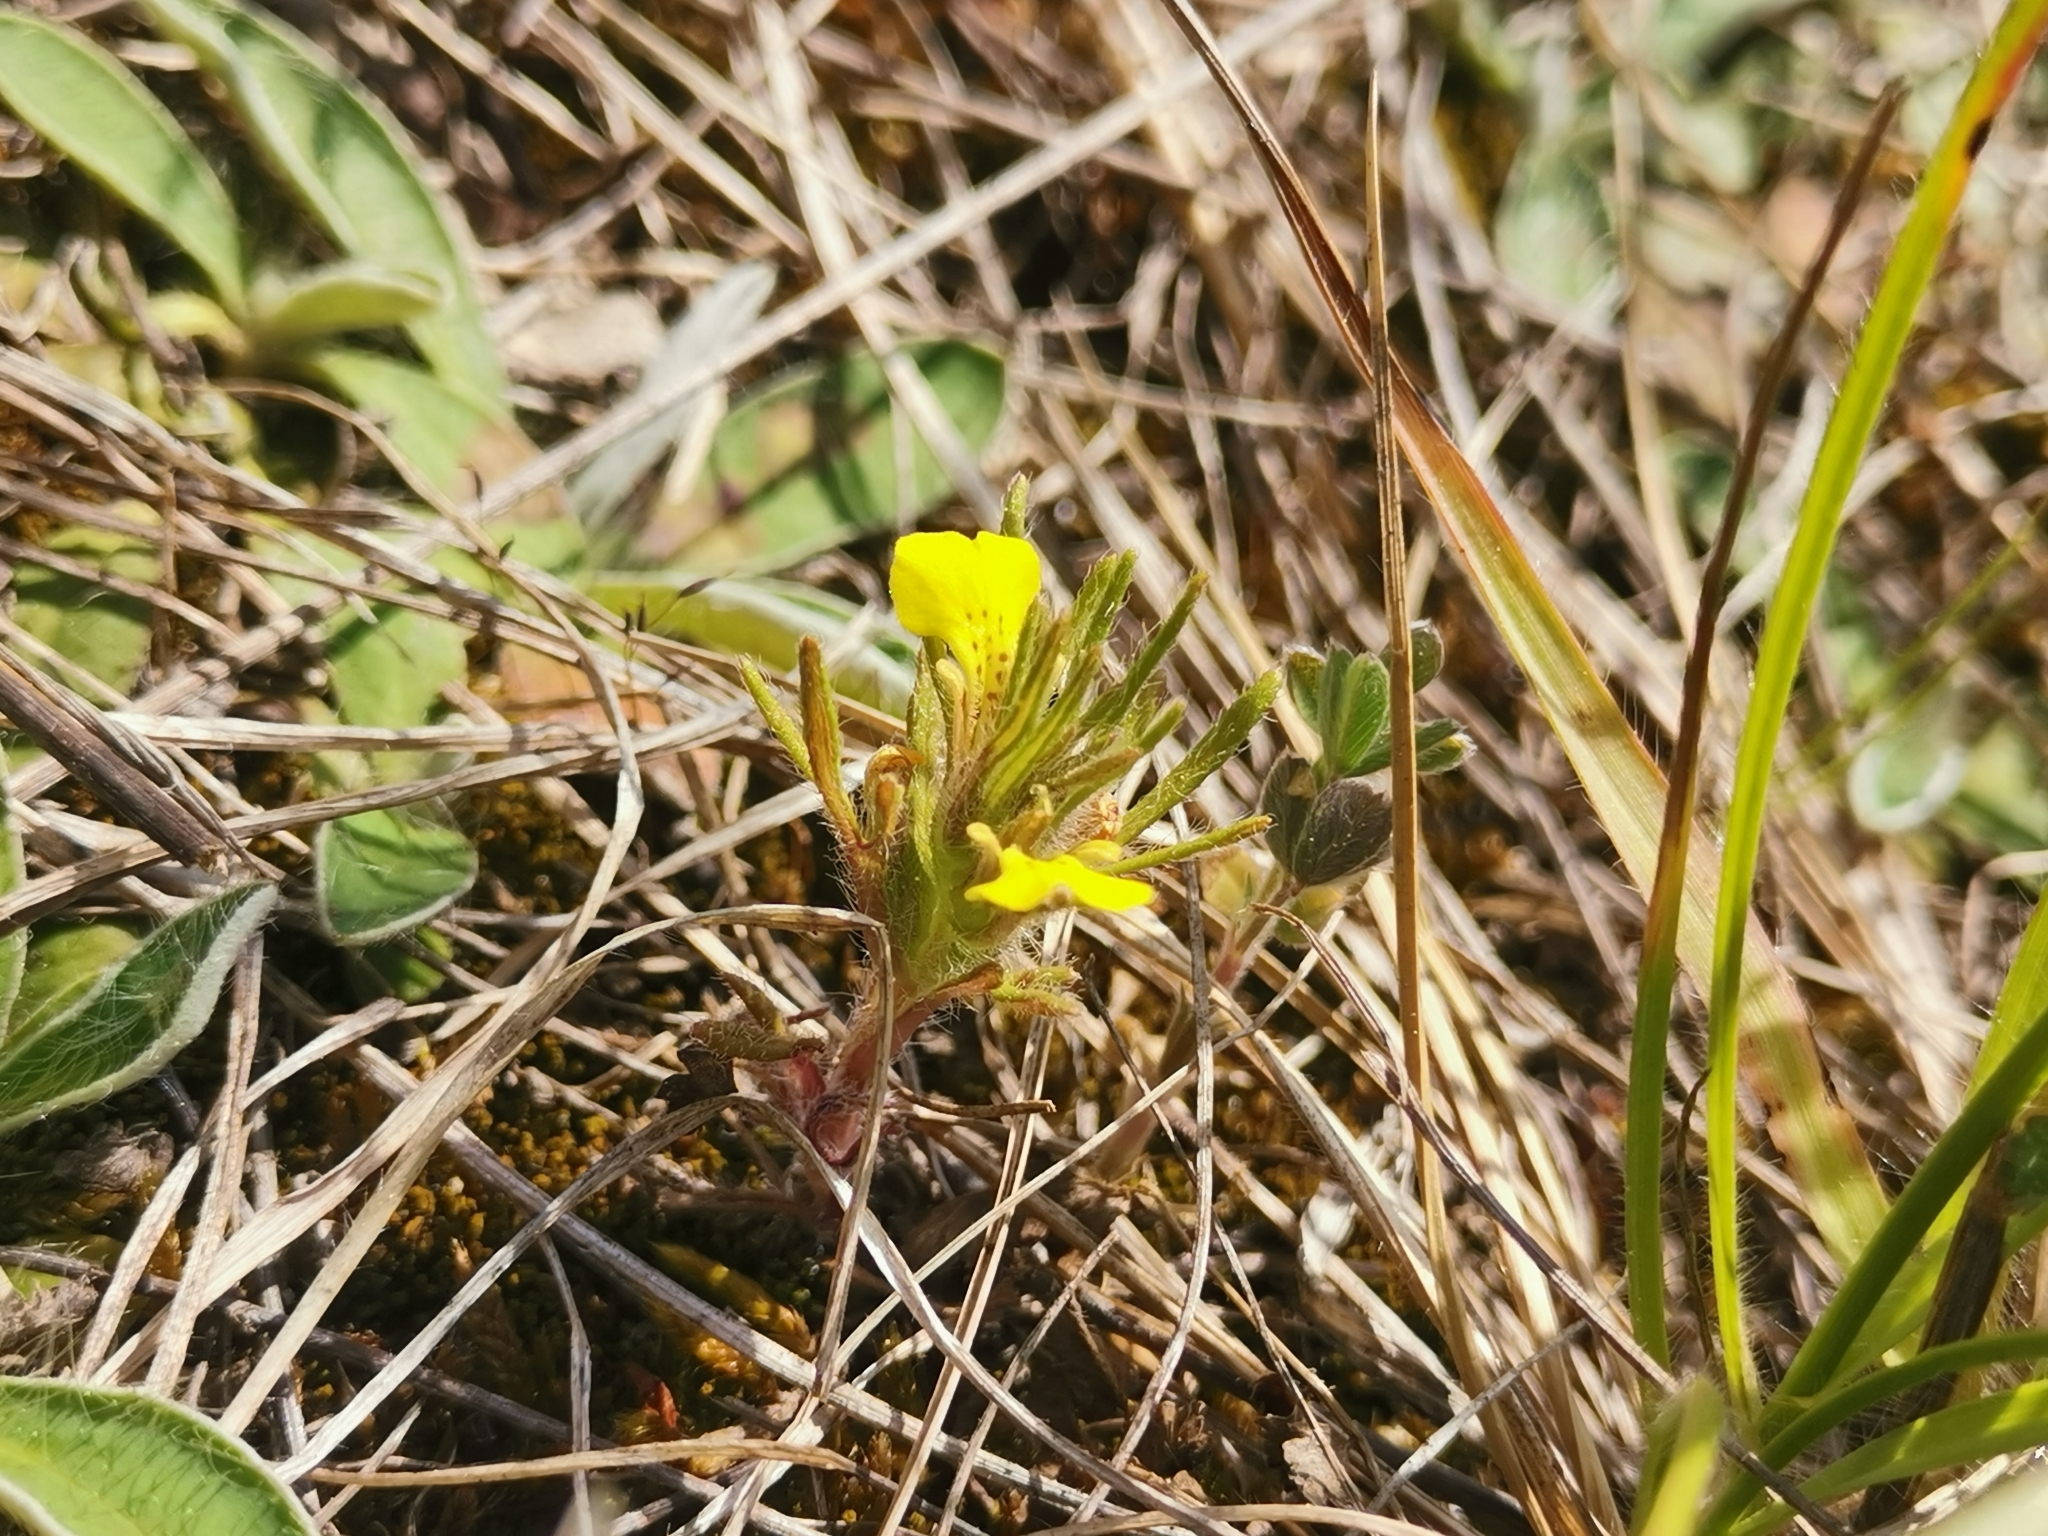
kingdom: Plantae
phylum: Tracheophyta
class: Magnoliopsida
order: Lamiales
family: Lamiaceae
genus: Ajuga
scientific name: Ajuga chamaepitys
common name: Ground-pine
